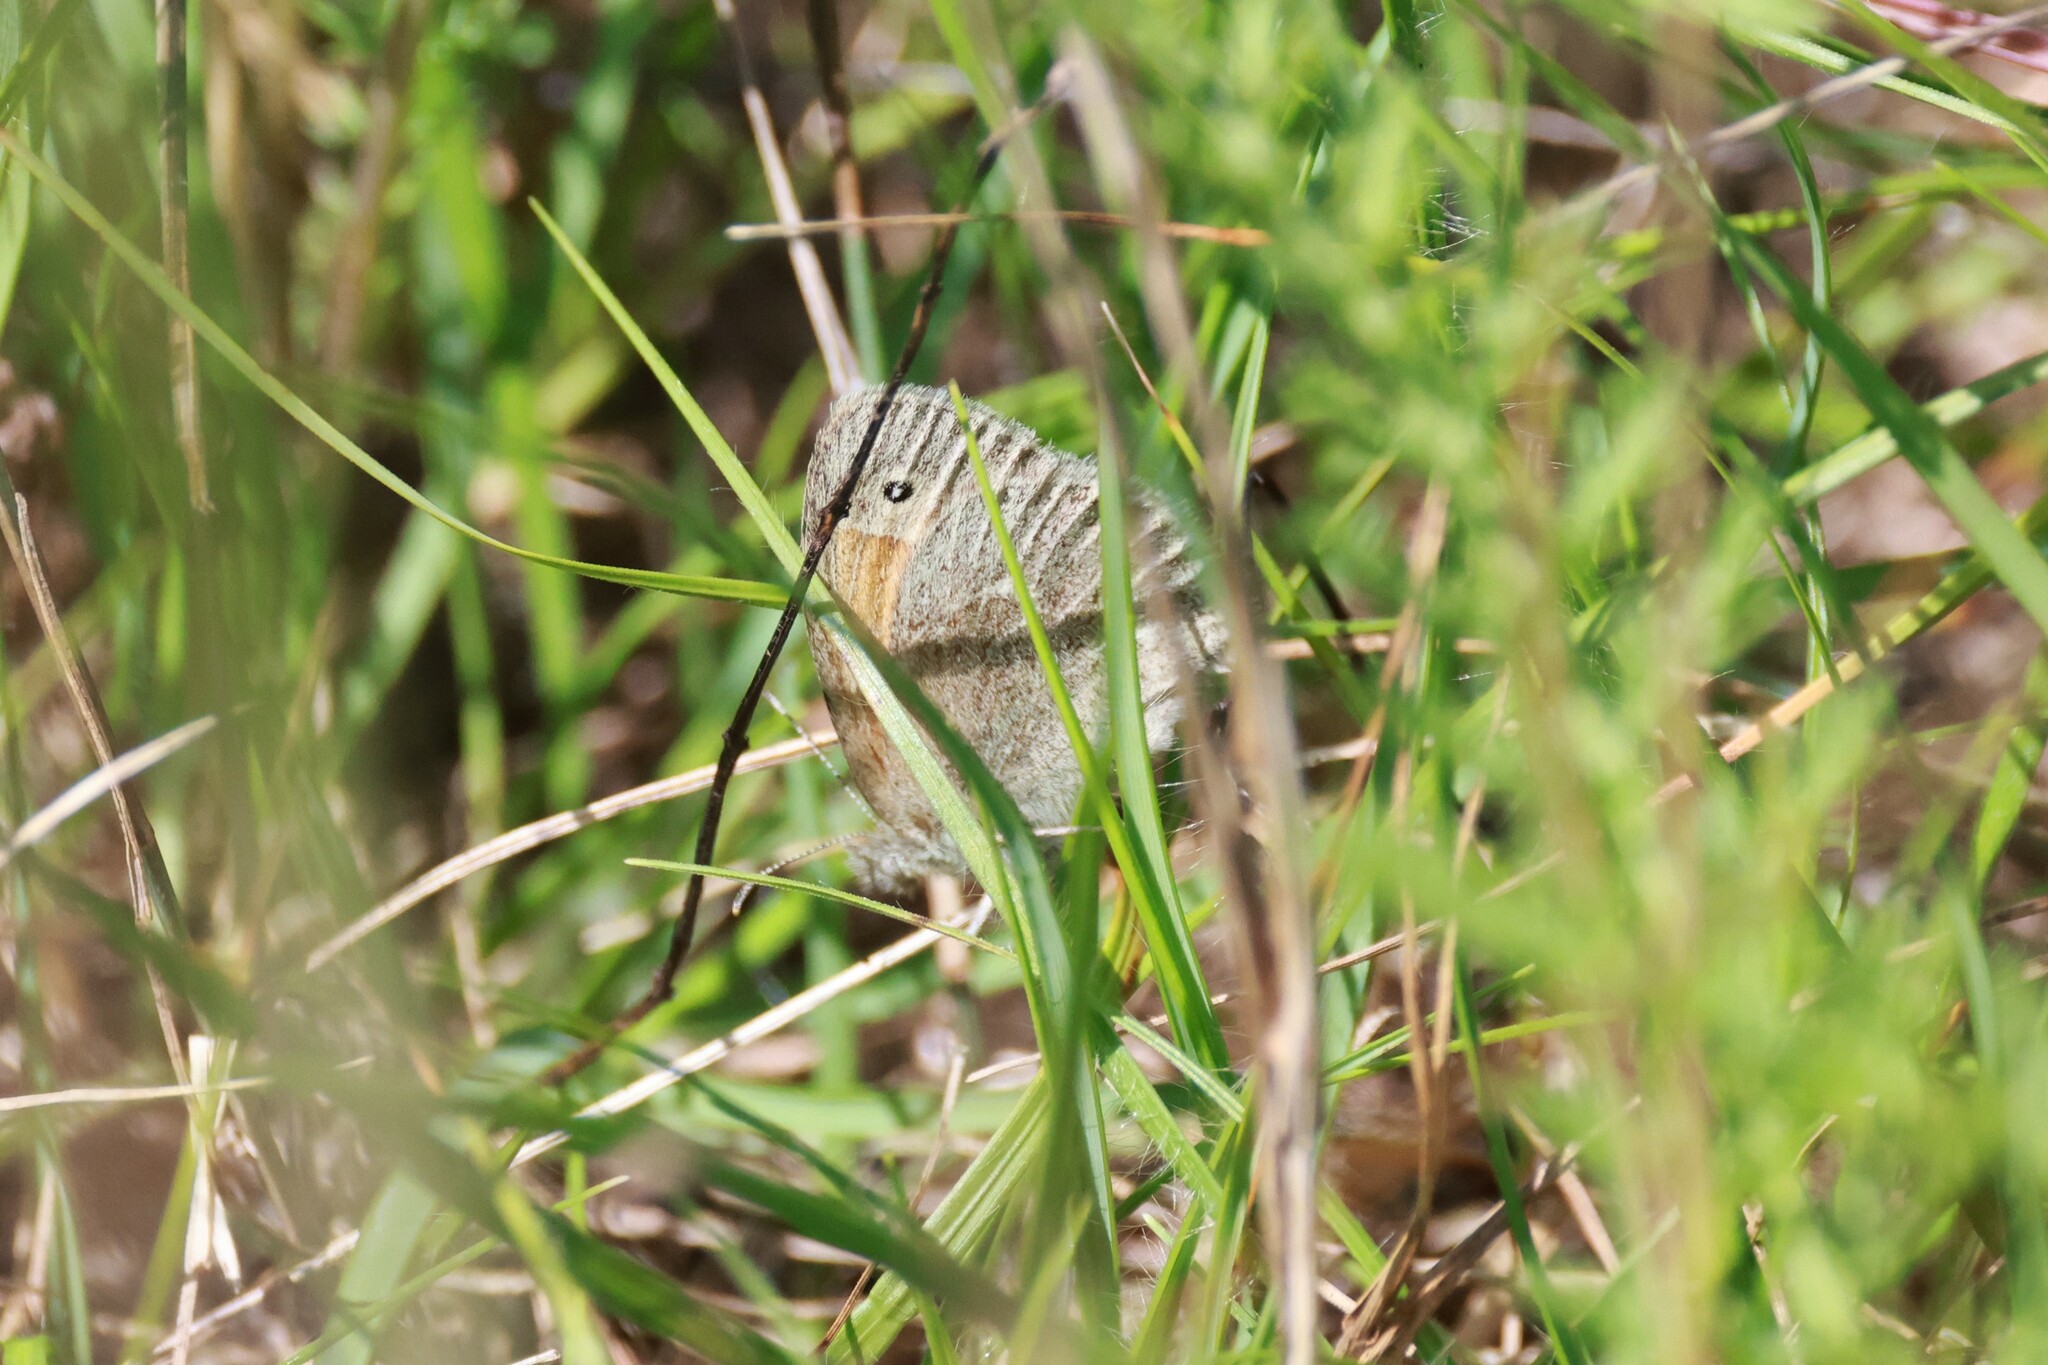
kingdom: Animalia
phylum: Arthropoda
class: Insecta
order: Lepidoptera
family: Nymphalidae
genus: Coenonympha
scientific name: Coenonympha california
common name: Common ringlet
